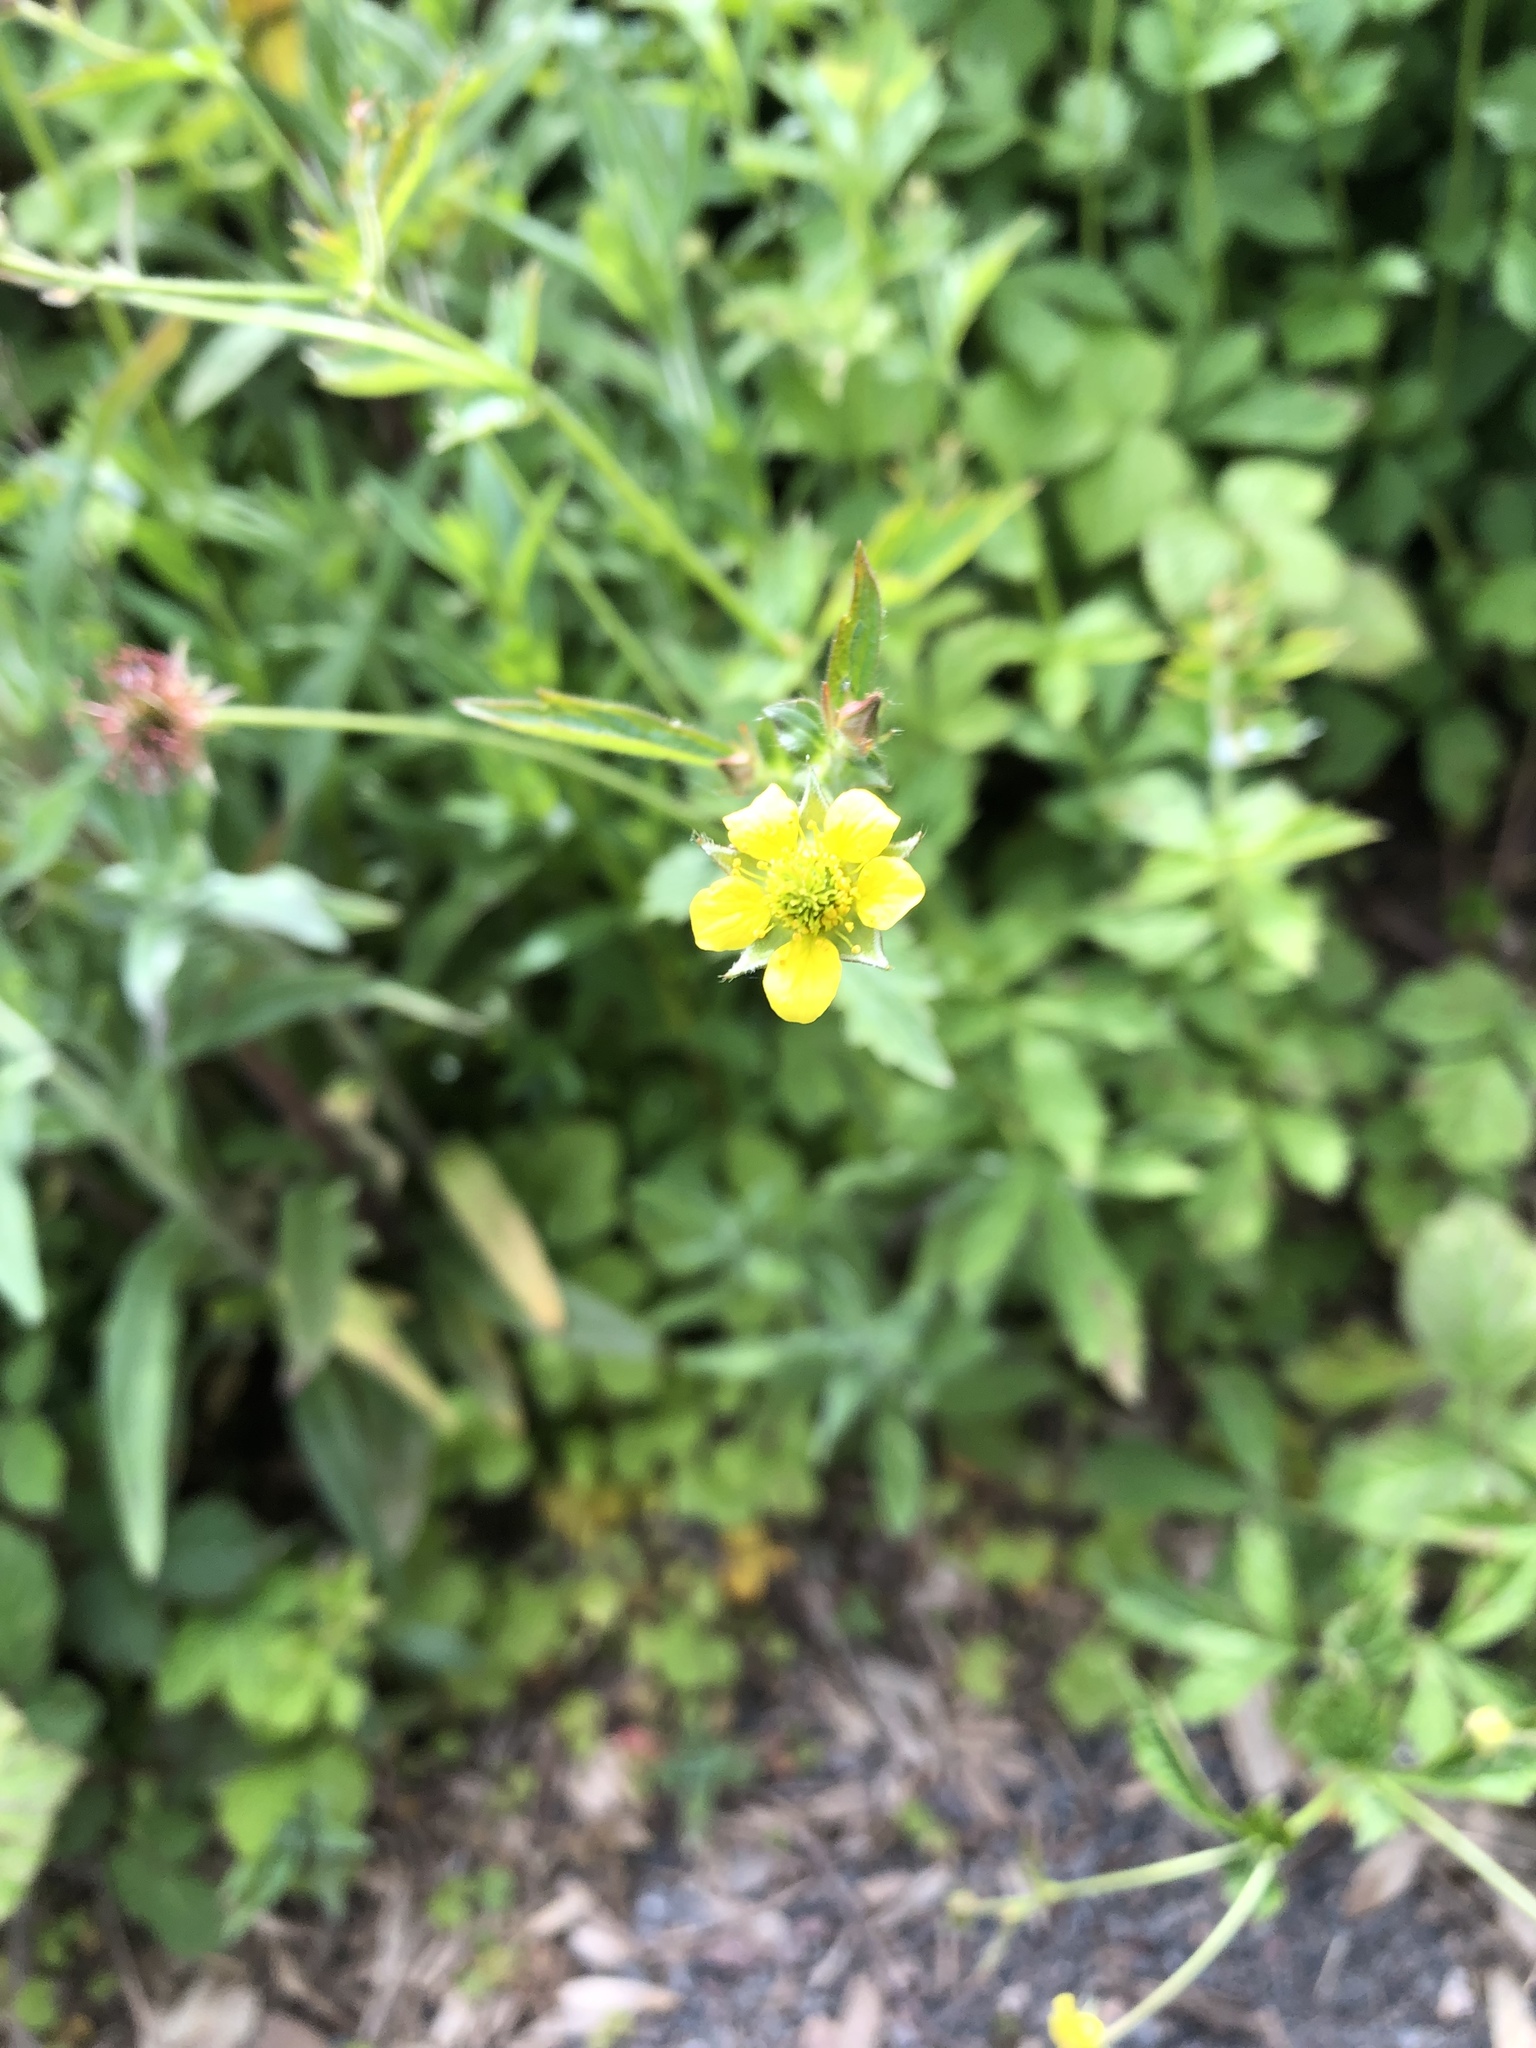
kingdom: Plantae
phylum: Tracheophyta
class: Magnoliopsida
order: Rosales
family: Rosaceae
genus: Geum
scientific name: Geum urbanum
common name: Wood avens
